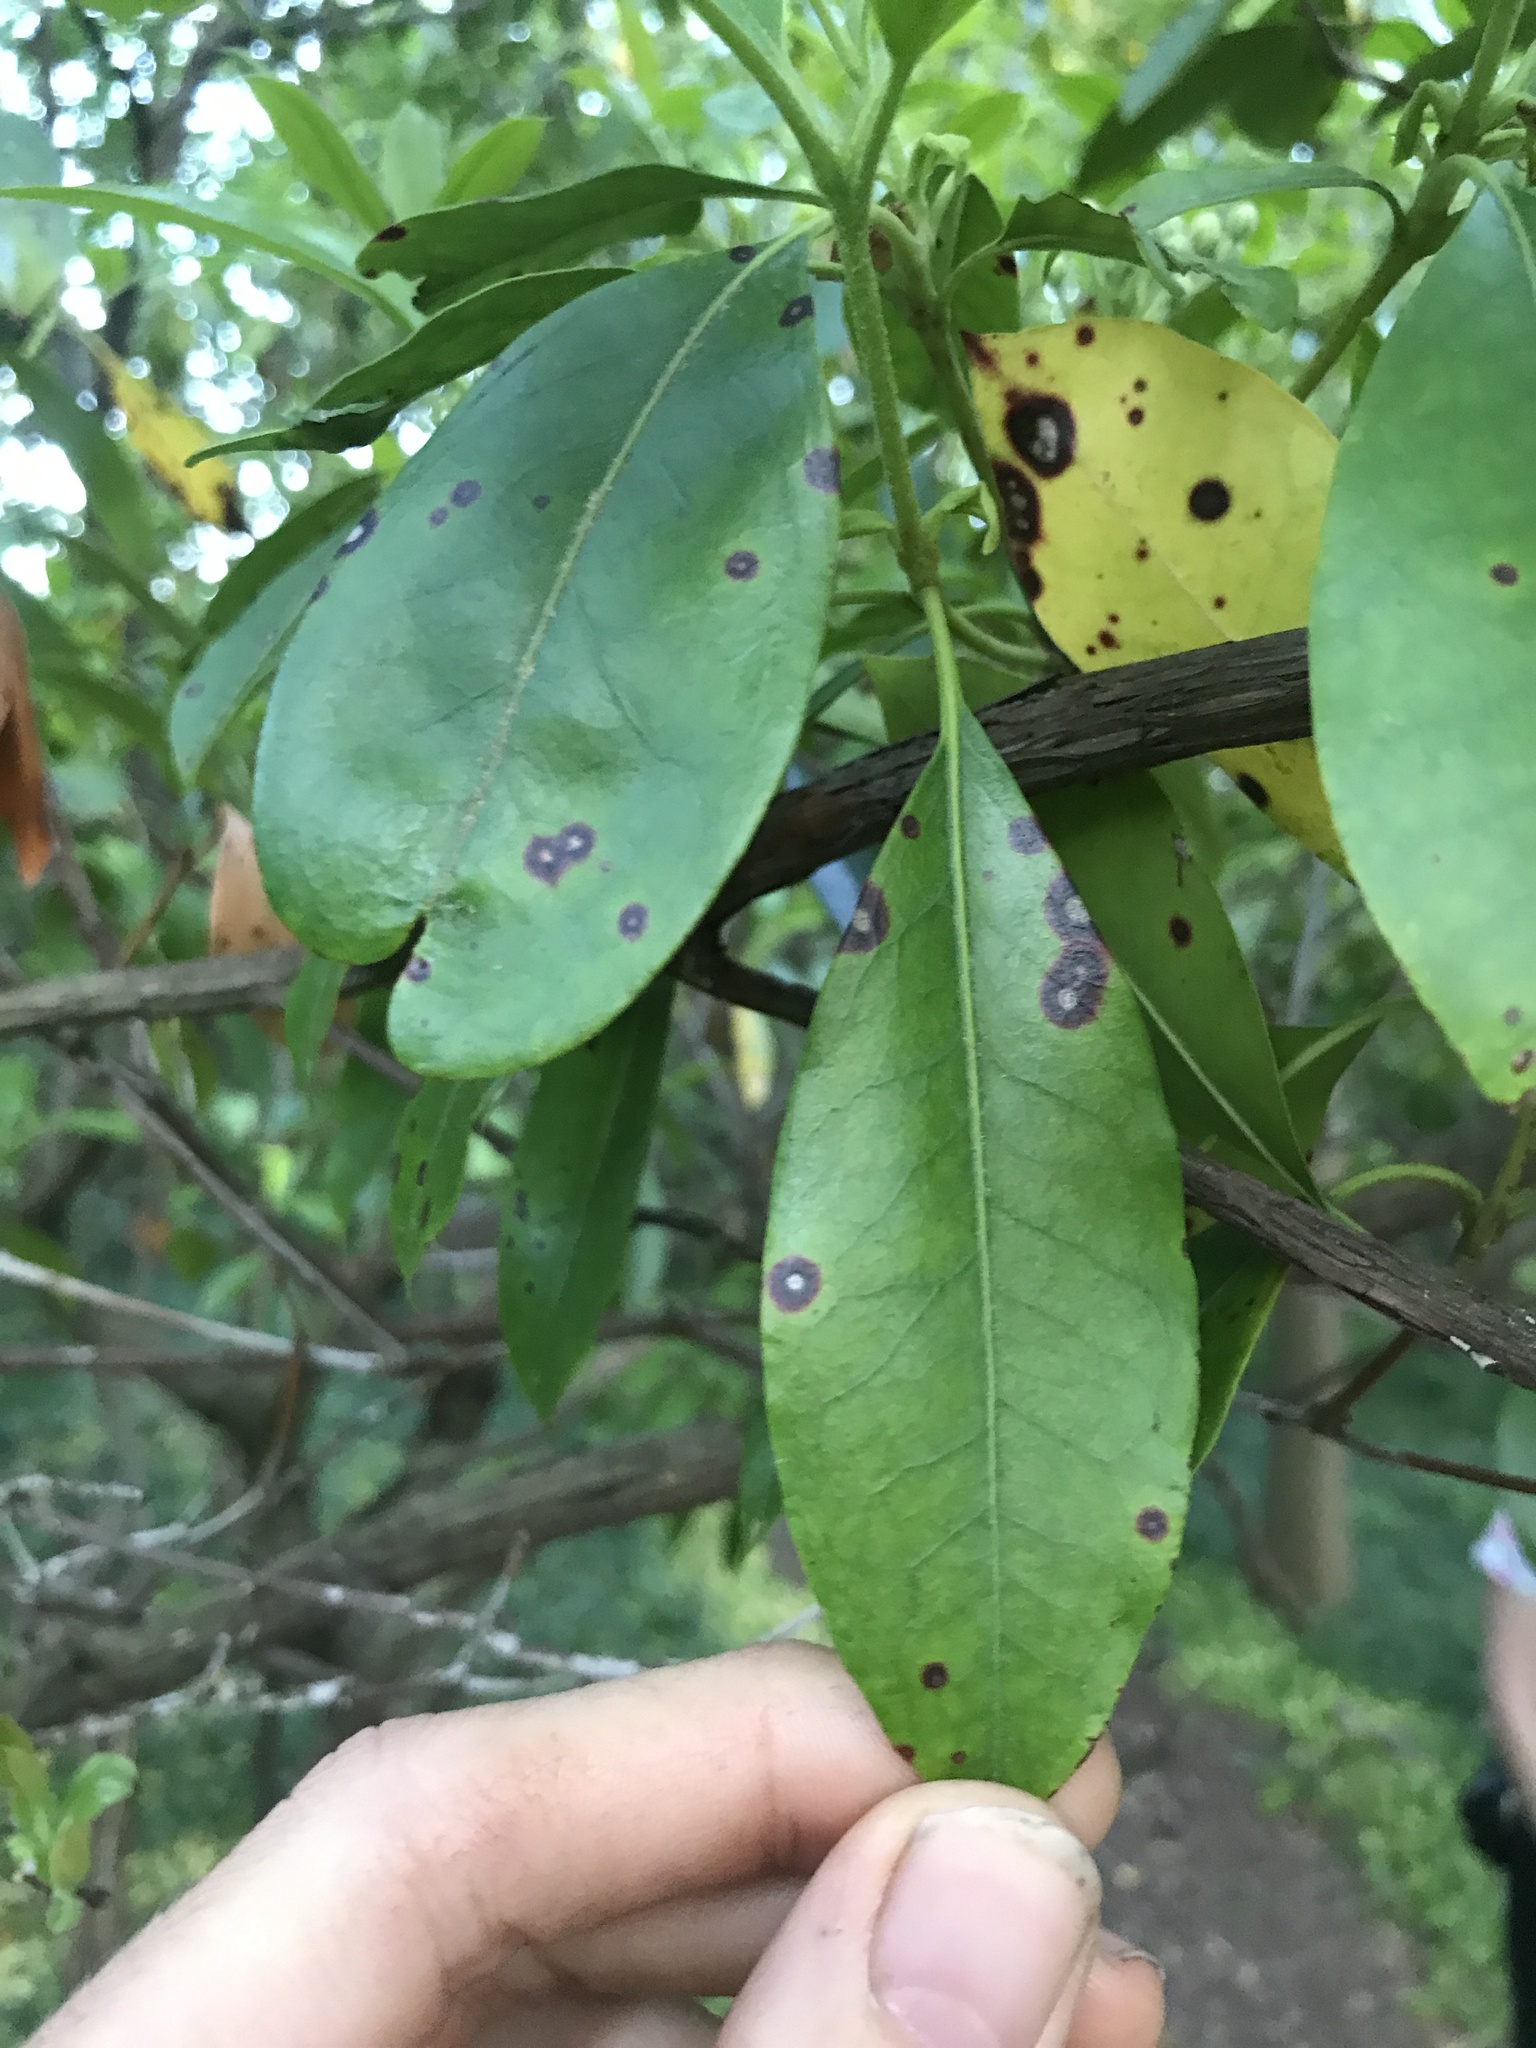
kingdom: Fungi
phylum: Ascomycota
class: Dothideomycetes
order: Mycosphaerellales
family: Mycosphaerellaceae
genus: Mycosphaerella
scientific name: Mycosphaerella colorata
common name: Mountain laurel leaf spot
